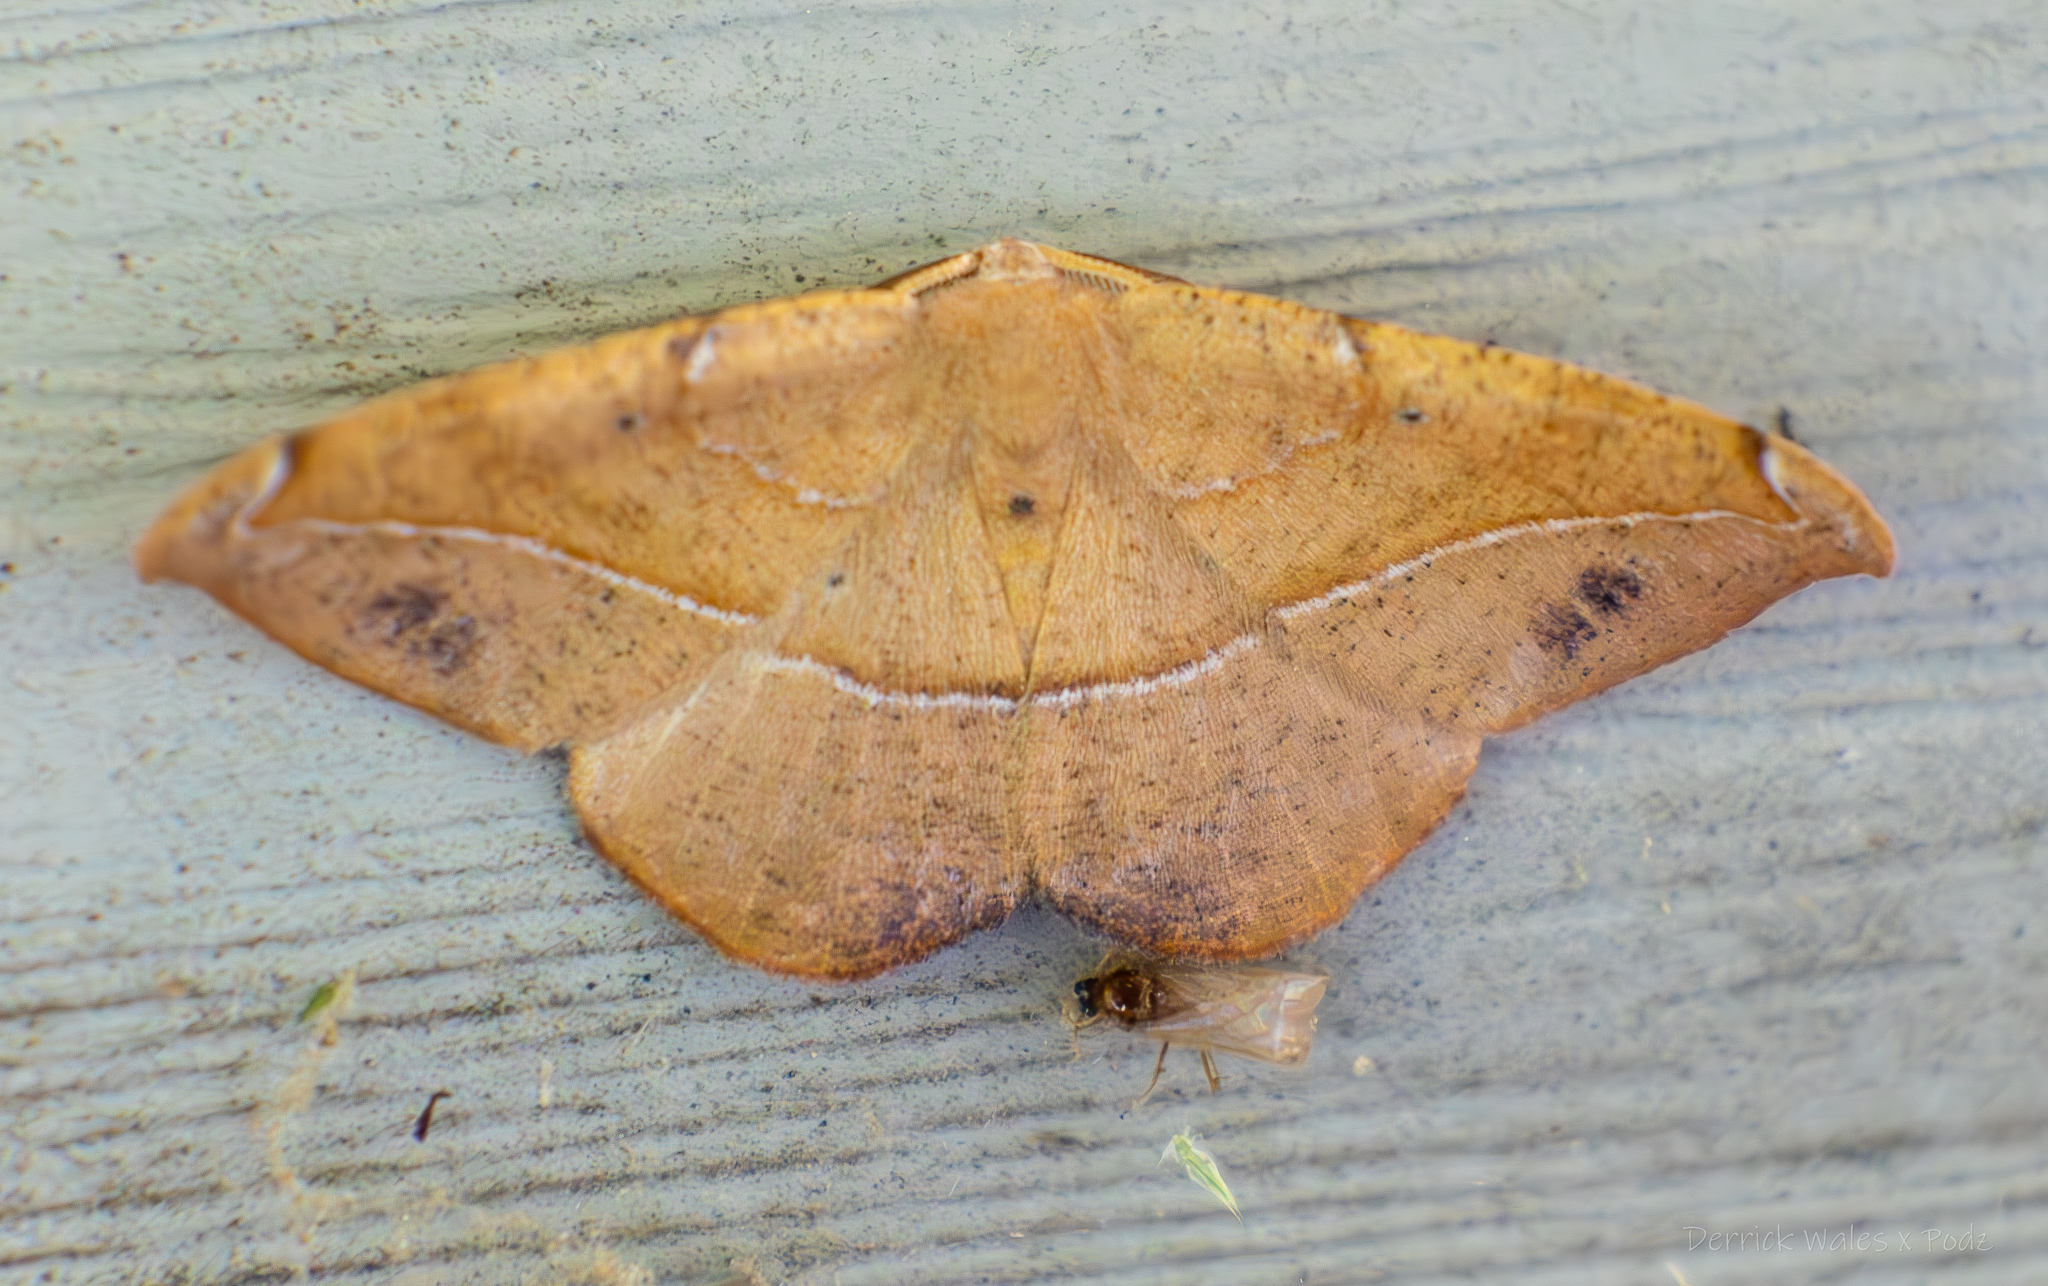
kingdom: Animalia
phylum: Arthropoda
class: Insecta
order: Lepidoptera
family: Geometridae
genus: Patalene
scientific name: Patalene olyzonaria
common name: Juniper geometer moth
